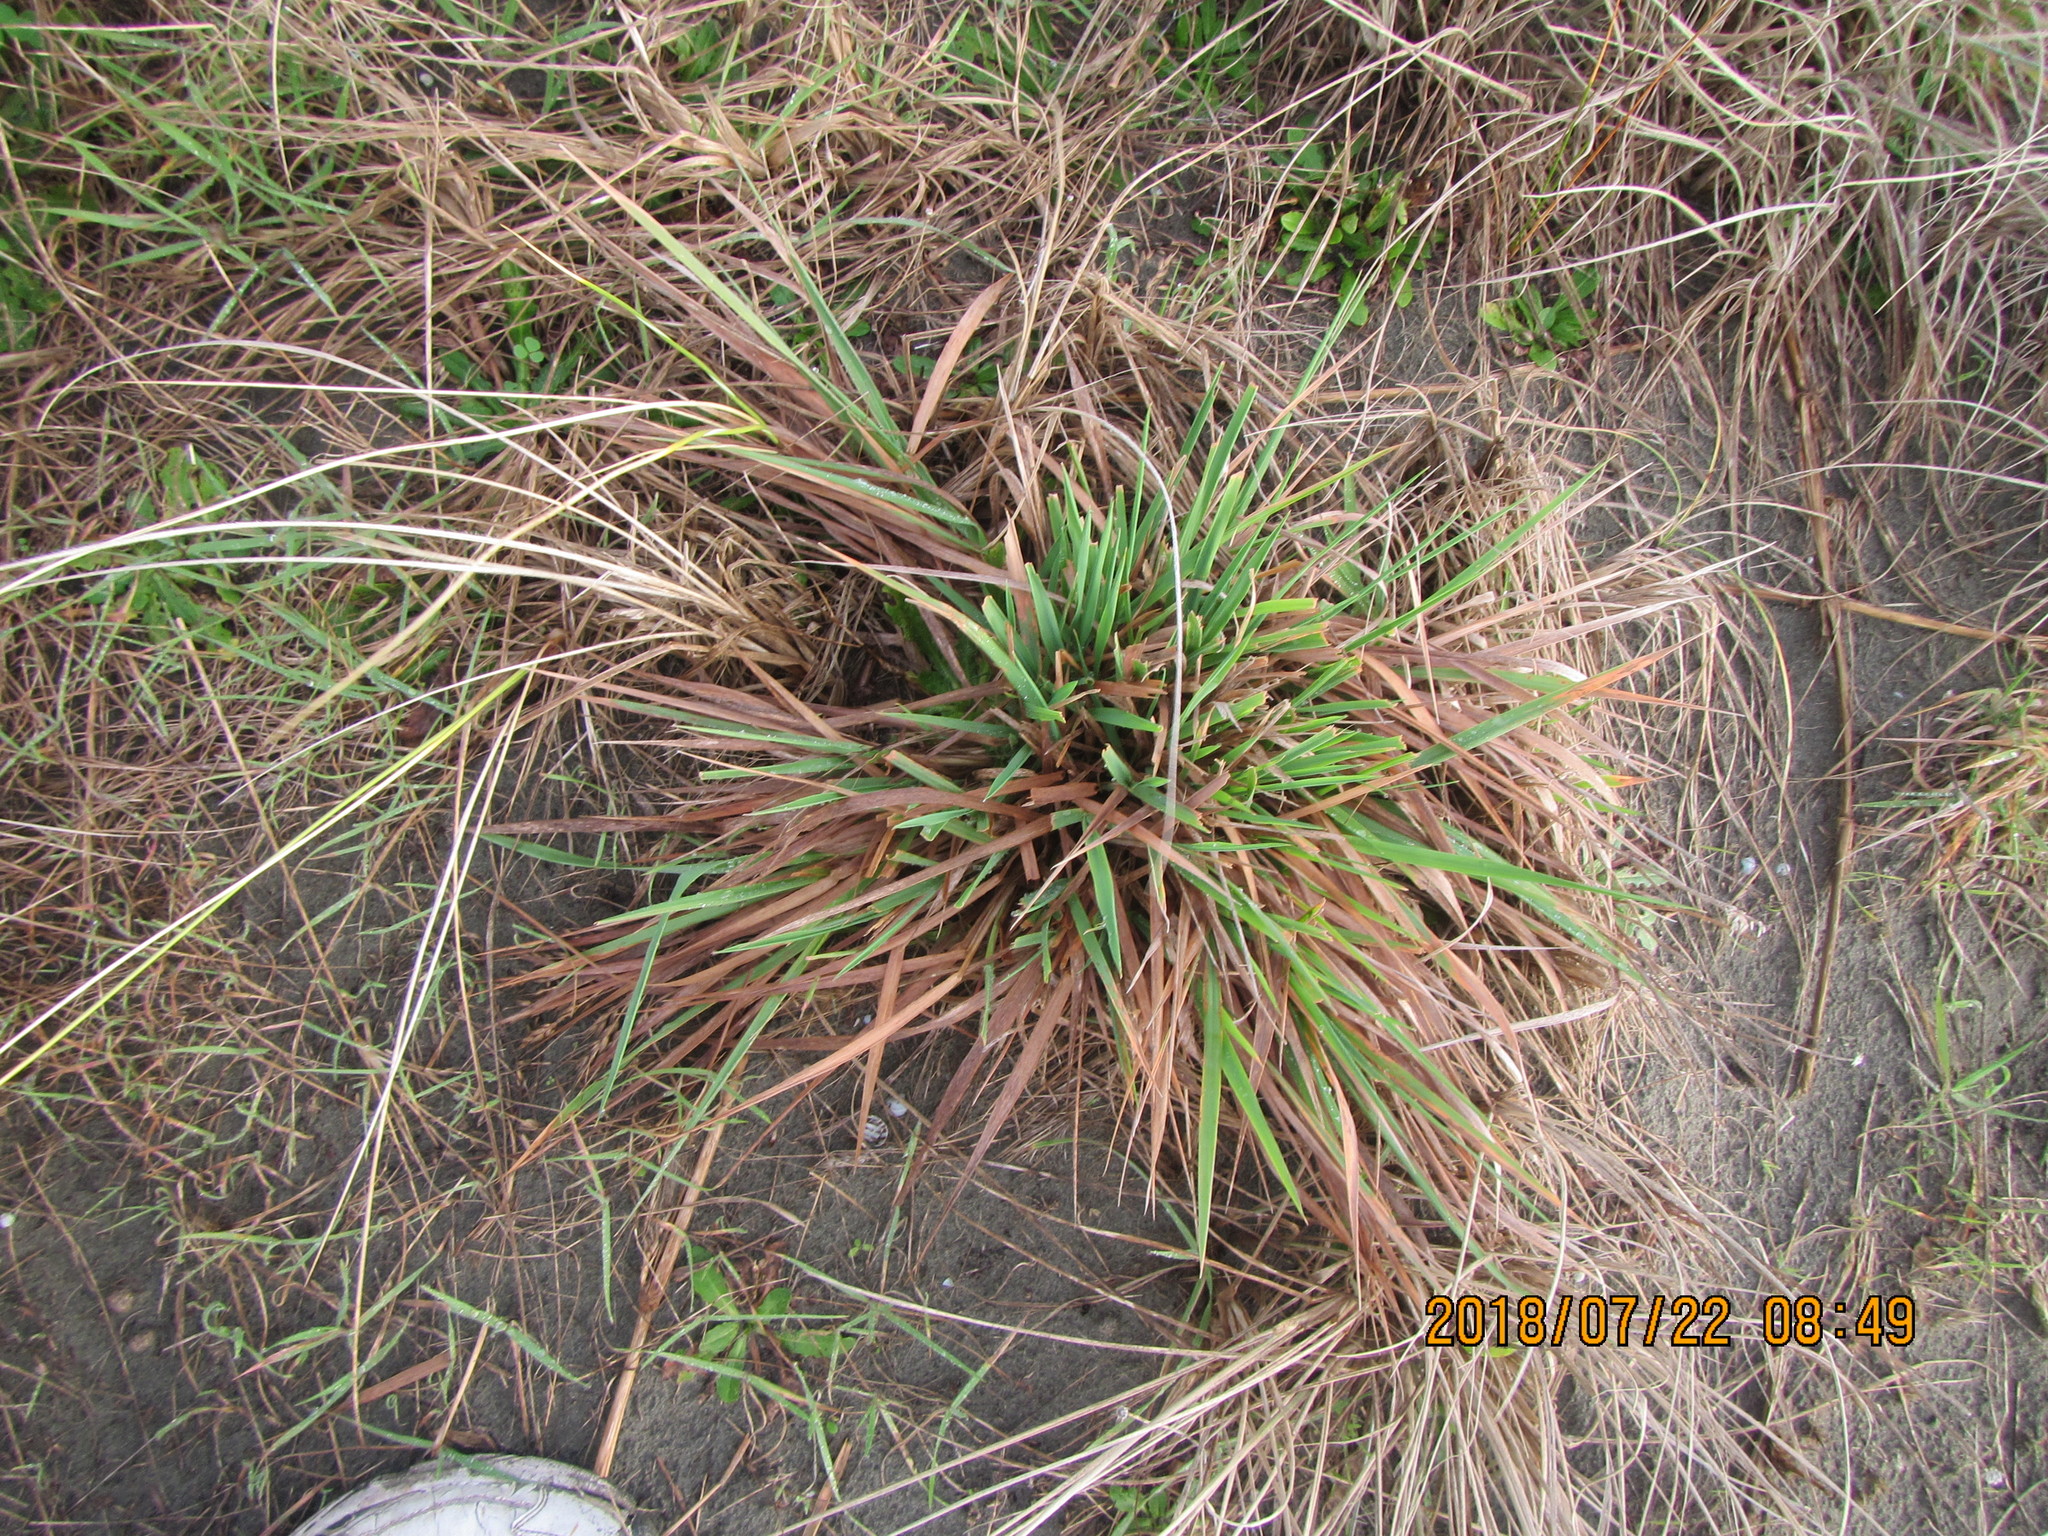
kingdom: Plantae
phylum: Tracheophyta
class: Liliopsida
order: Poales
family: Poaceae
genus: Lachnagrostis
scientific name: Lachnagrostis billardierei
